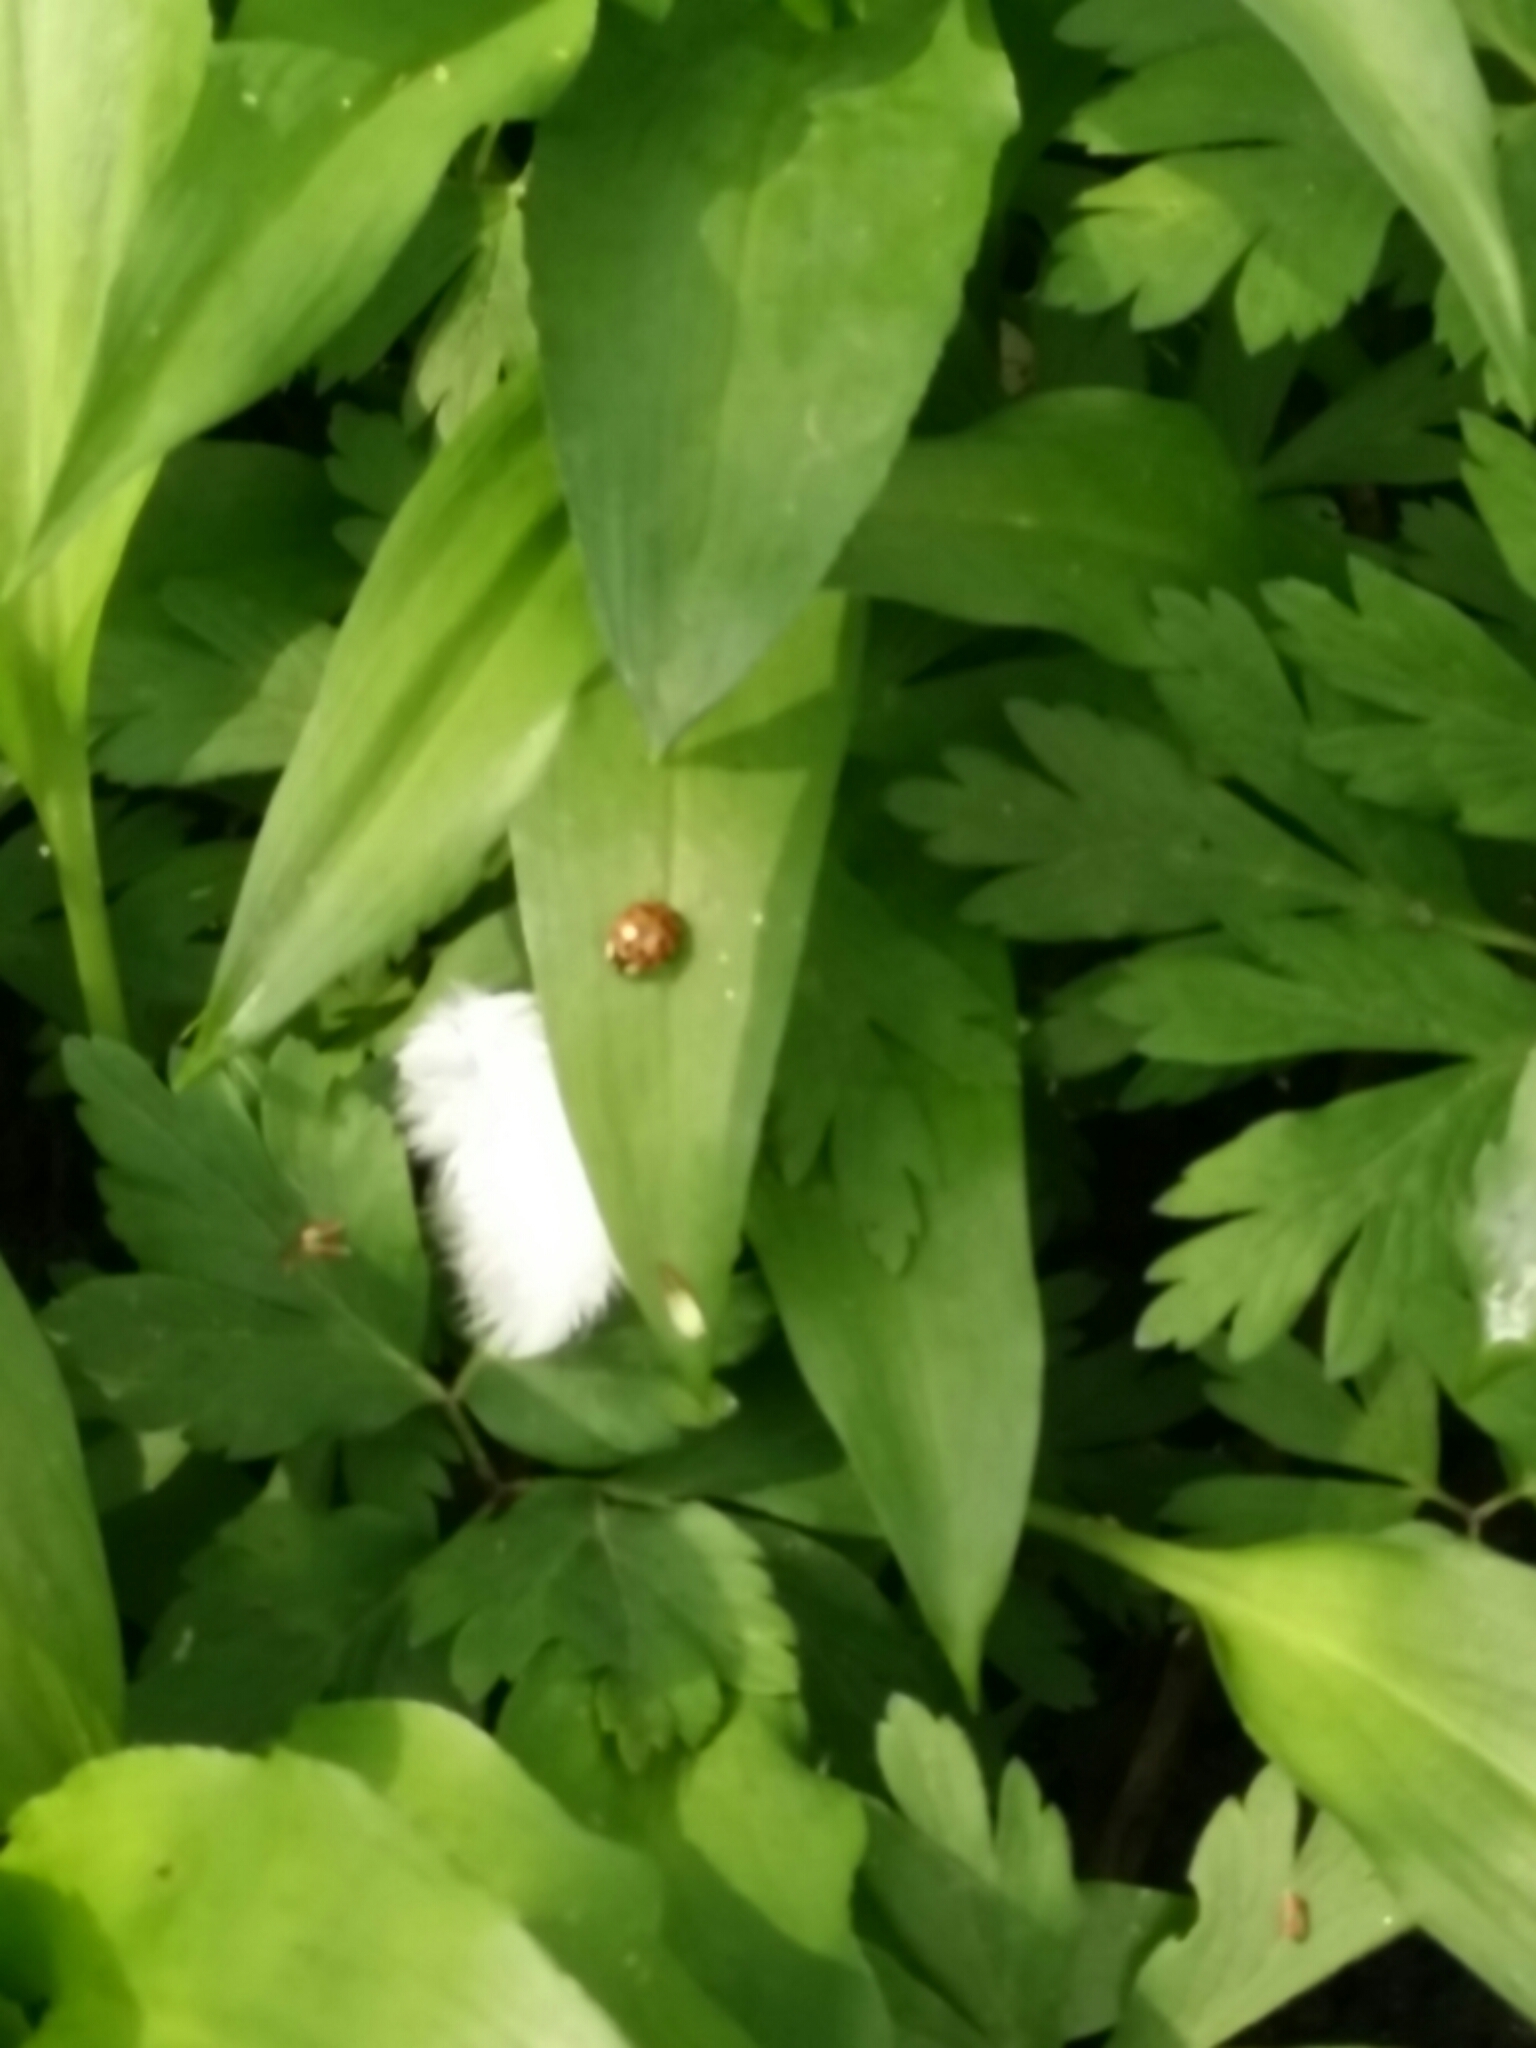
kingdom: Animalia
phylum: Arthropoda
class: Insecta
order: Coleoptera
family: Coccinellidae
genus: Harmonia
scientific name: Harmonia axyridis
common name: Harlequin ladybird
